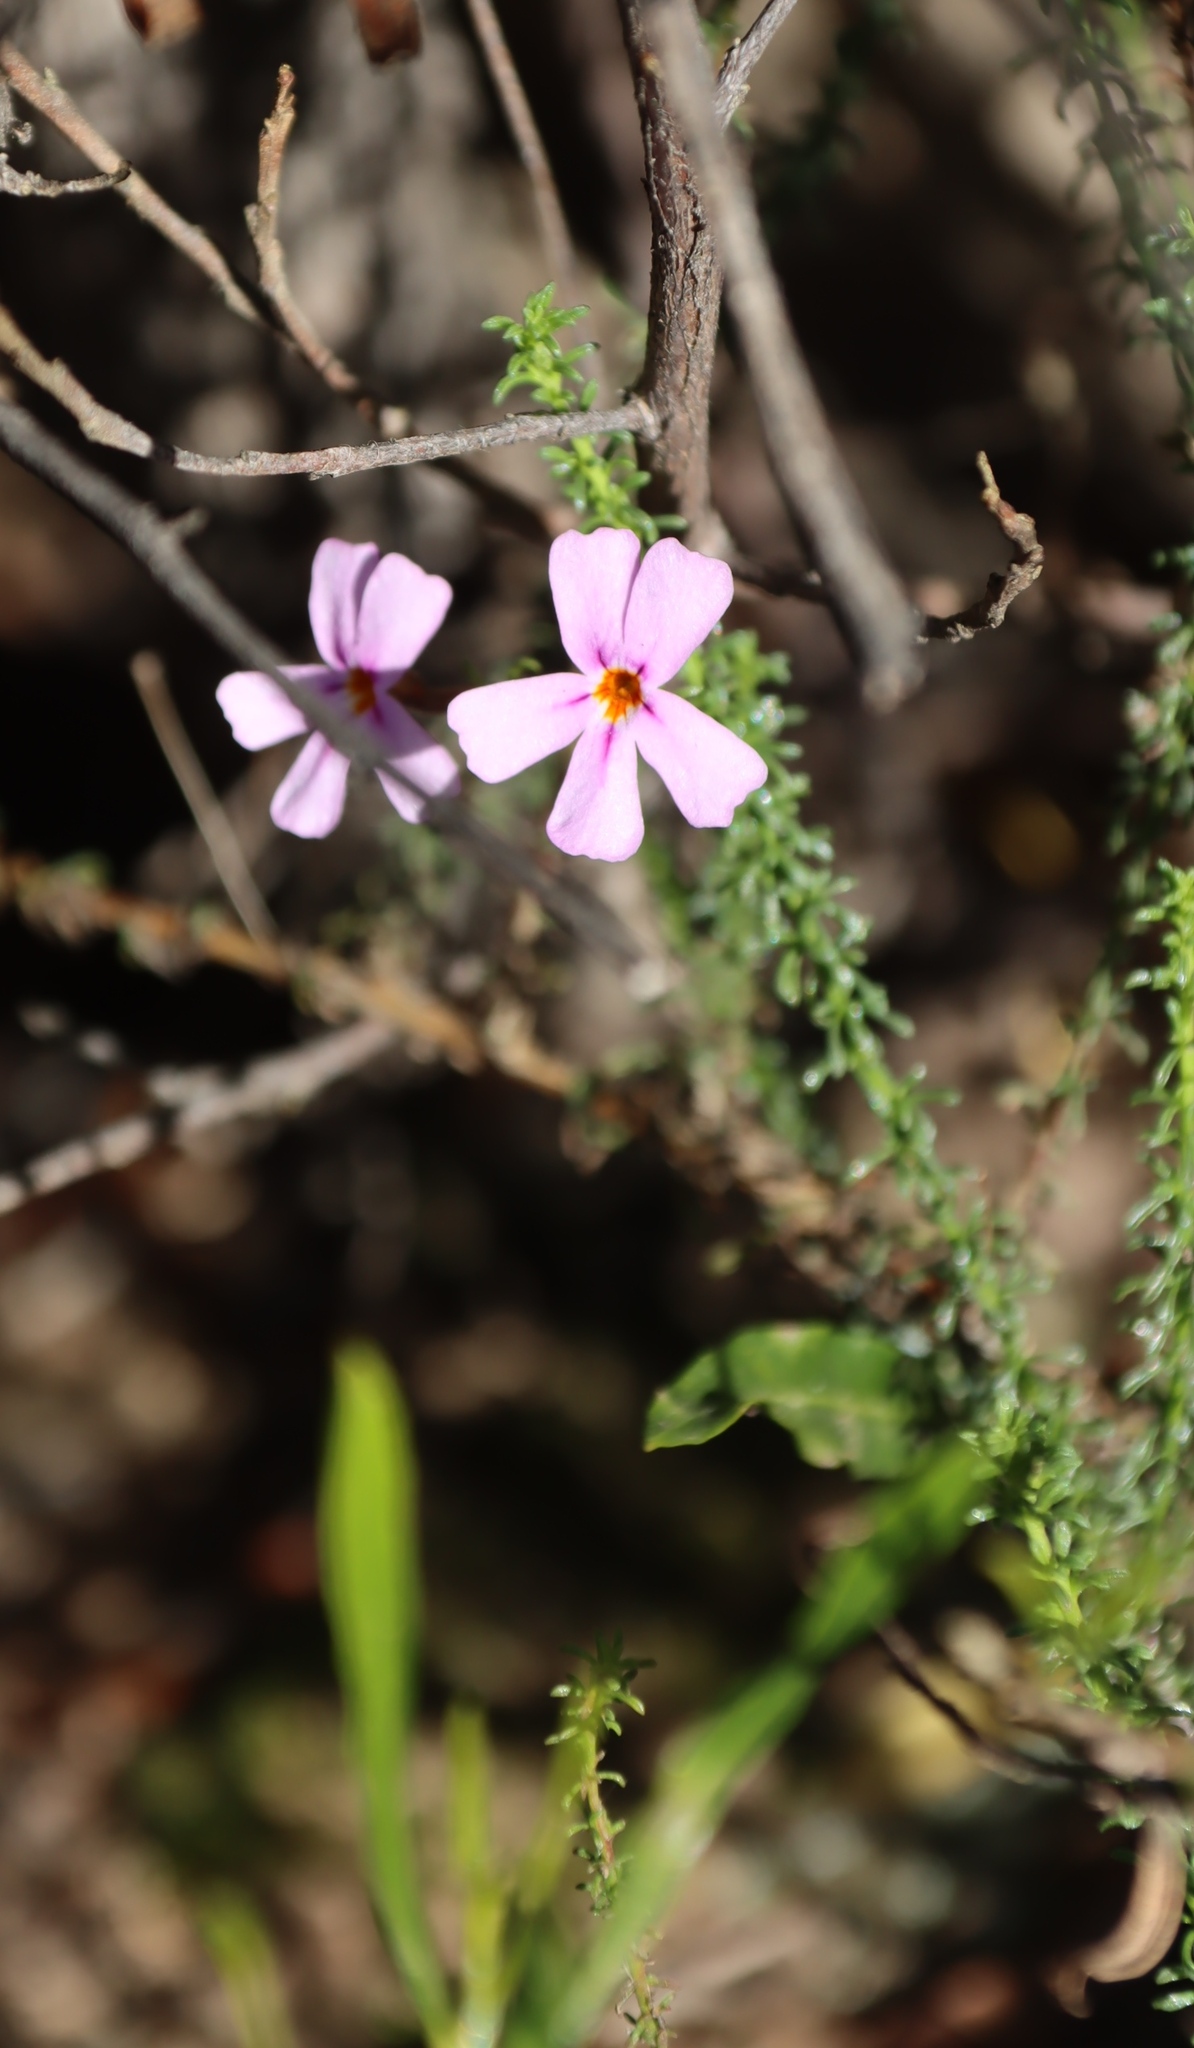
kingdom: Plantae
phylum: Tracheophyta
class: Magnoliopsida
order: Lamiales
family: Scrophulariaceae
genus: Jamesbrittenia
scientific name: Jamesbrittenia aspalathoides
